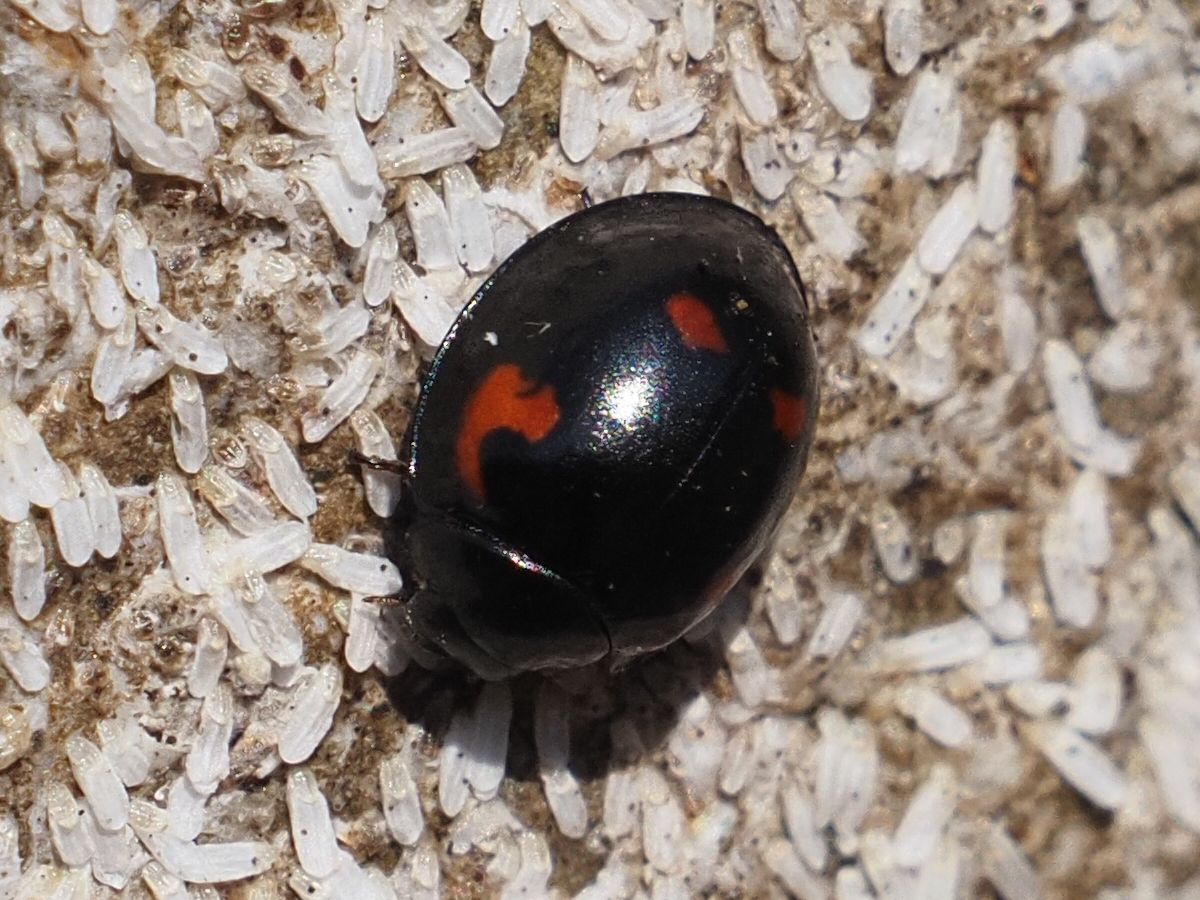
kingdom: Animalia
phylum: Arthropoda
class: Insecta
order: Coleoptera
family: Coccinellidae
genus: Brumus
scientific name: Brumus quadripustulatus
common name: Ladybird beetle
